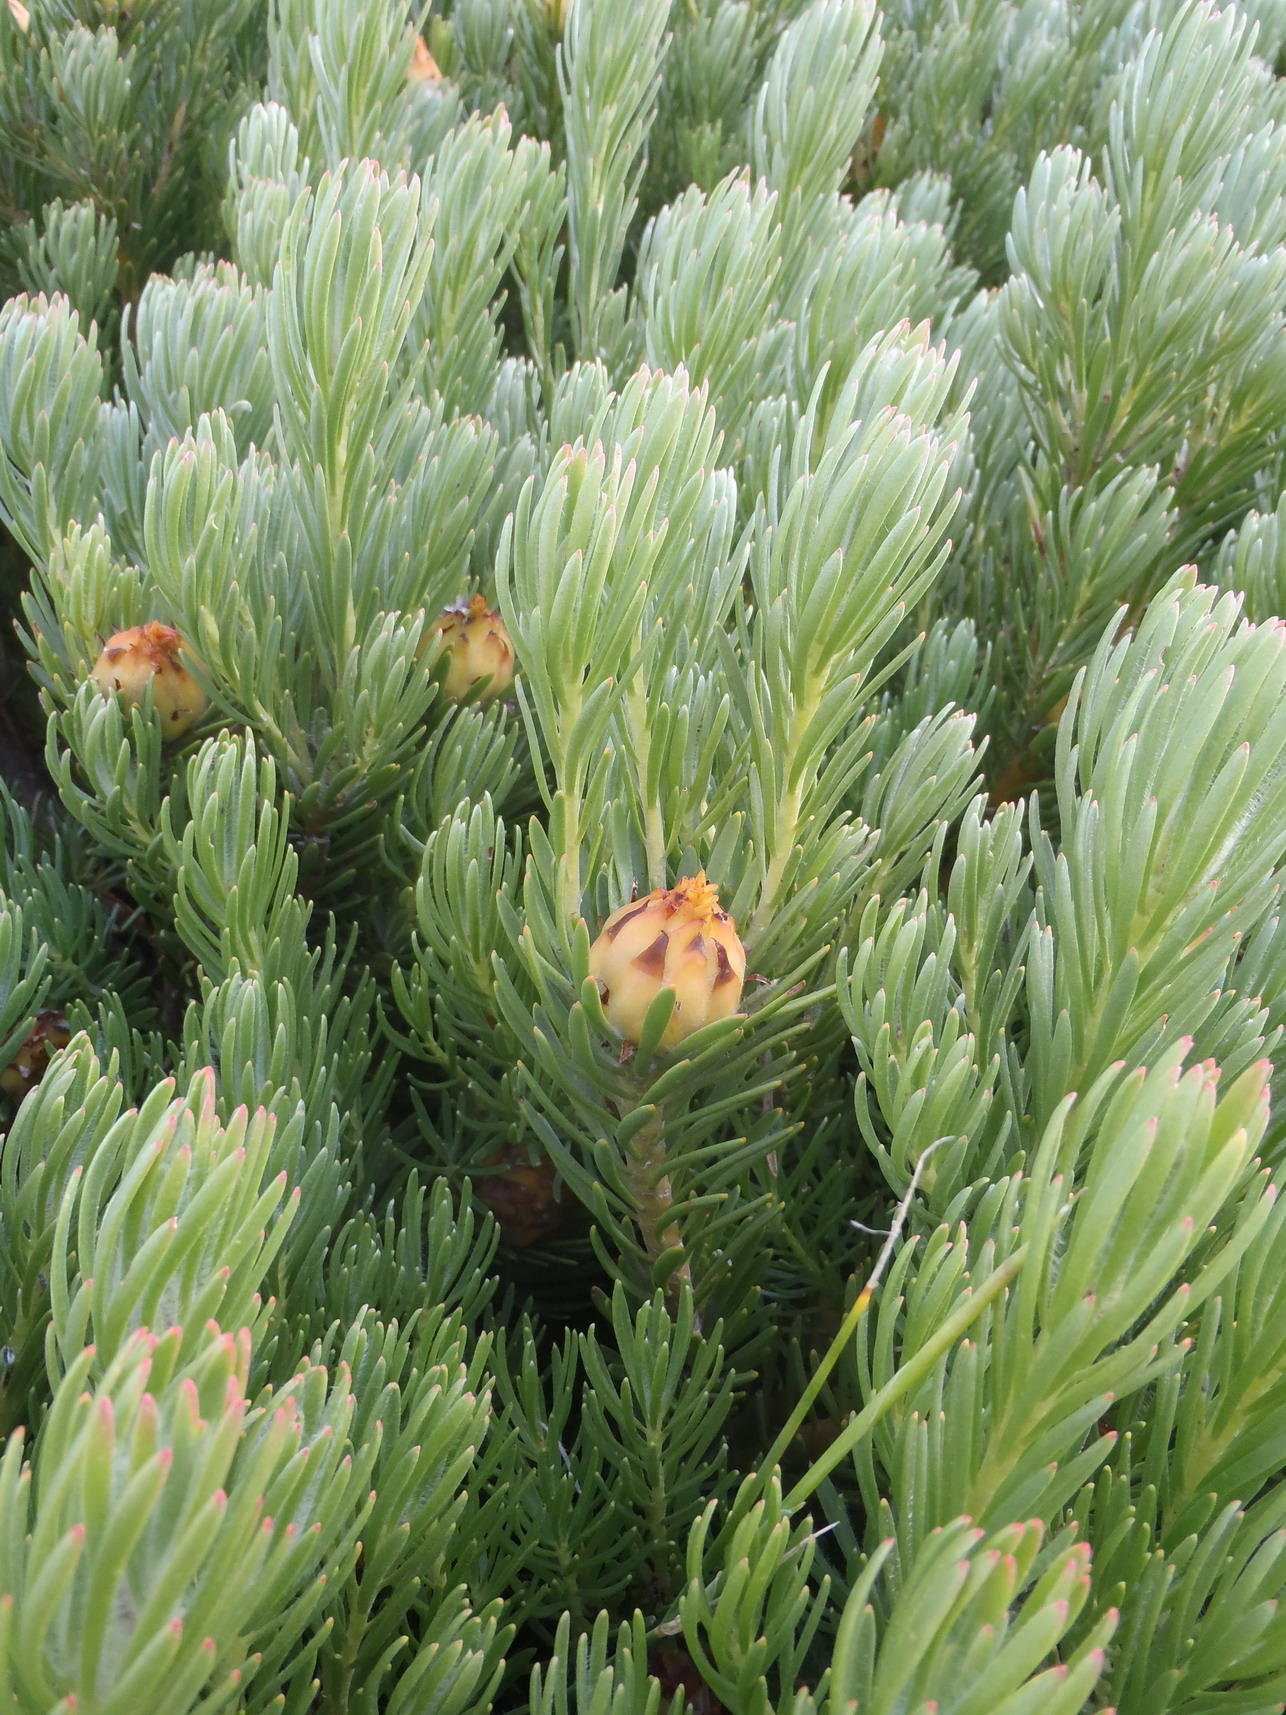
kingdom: Plantae
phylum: Tracheophyta
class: Magnoliopsida
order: Proteales
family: Proteaceae
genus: Leucadendron
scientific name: Leucadendron dregei
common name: Summit conebush
